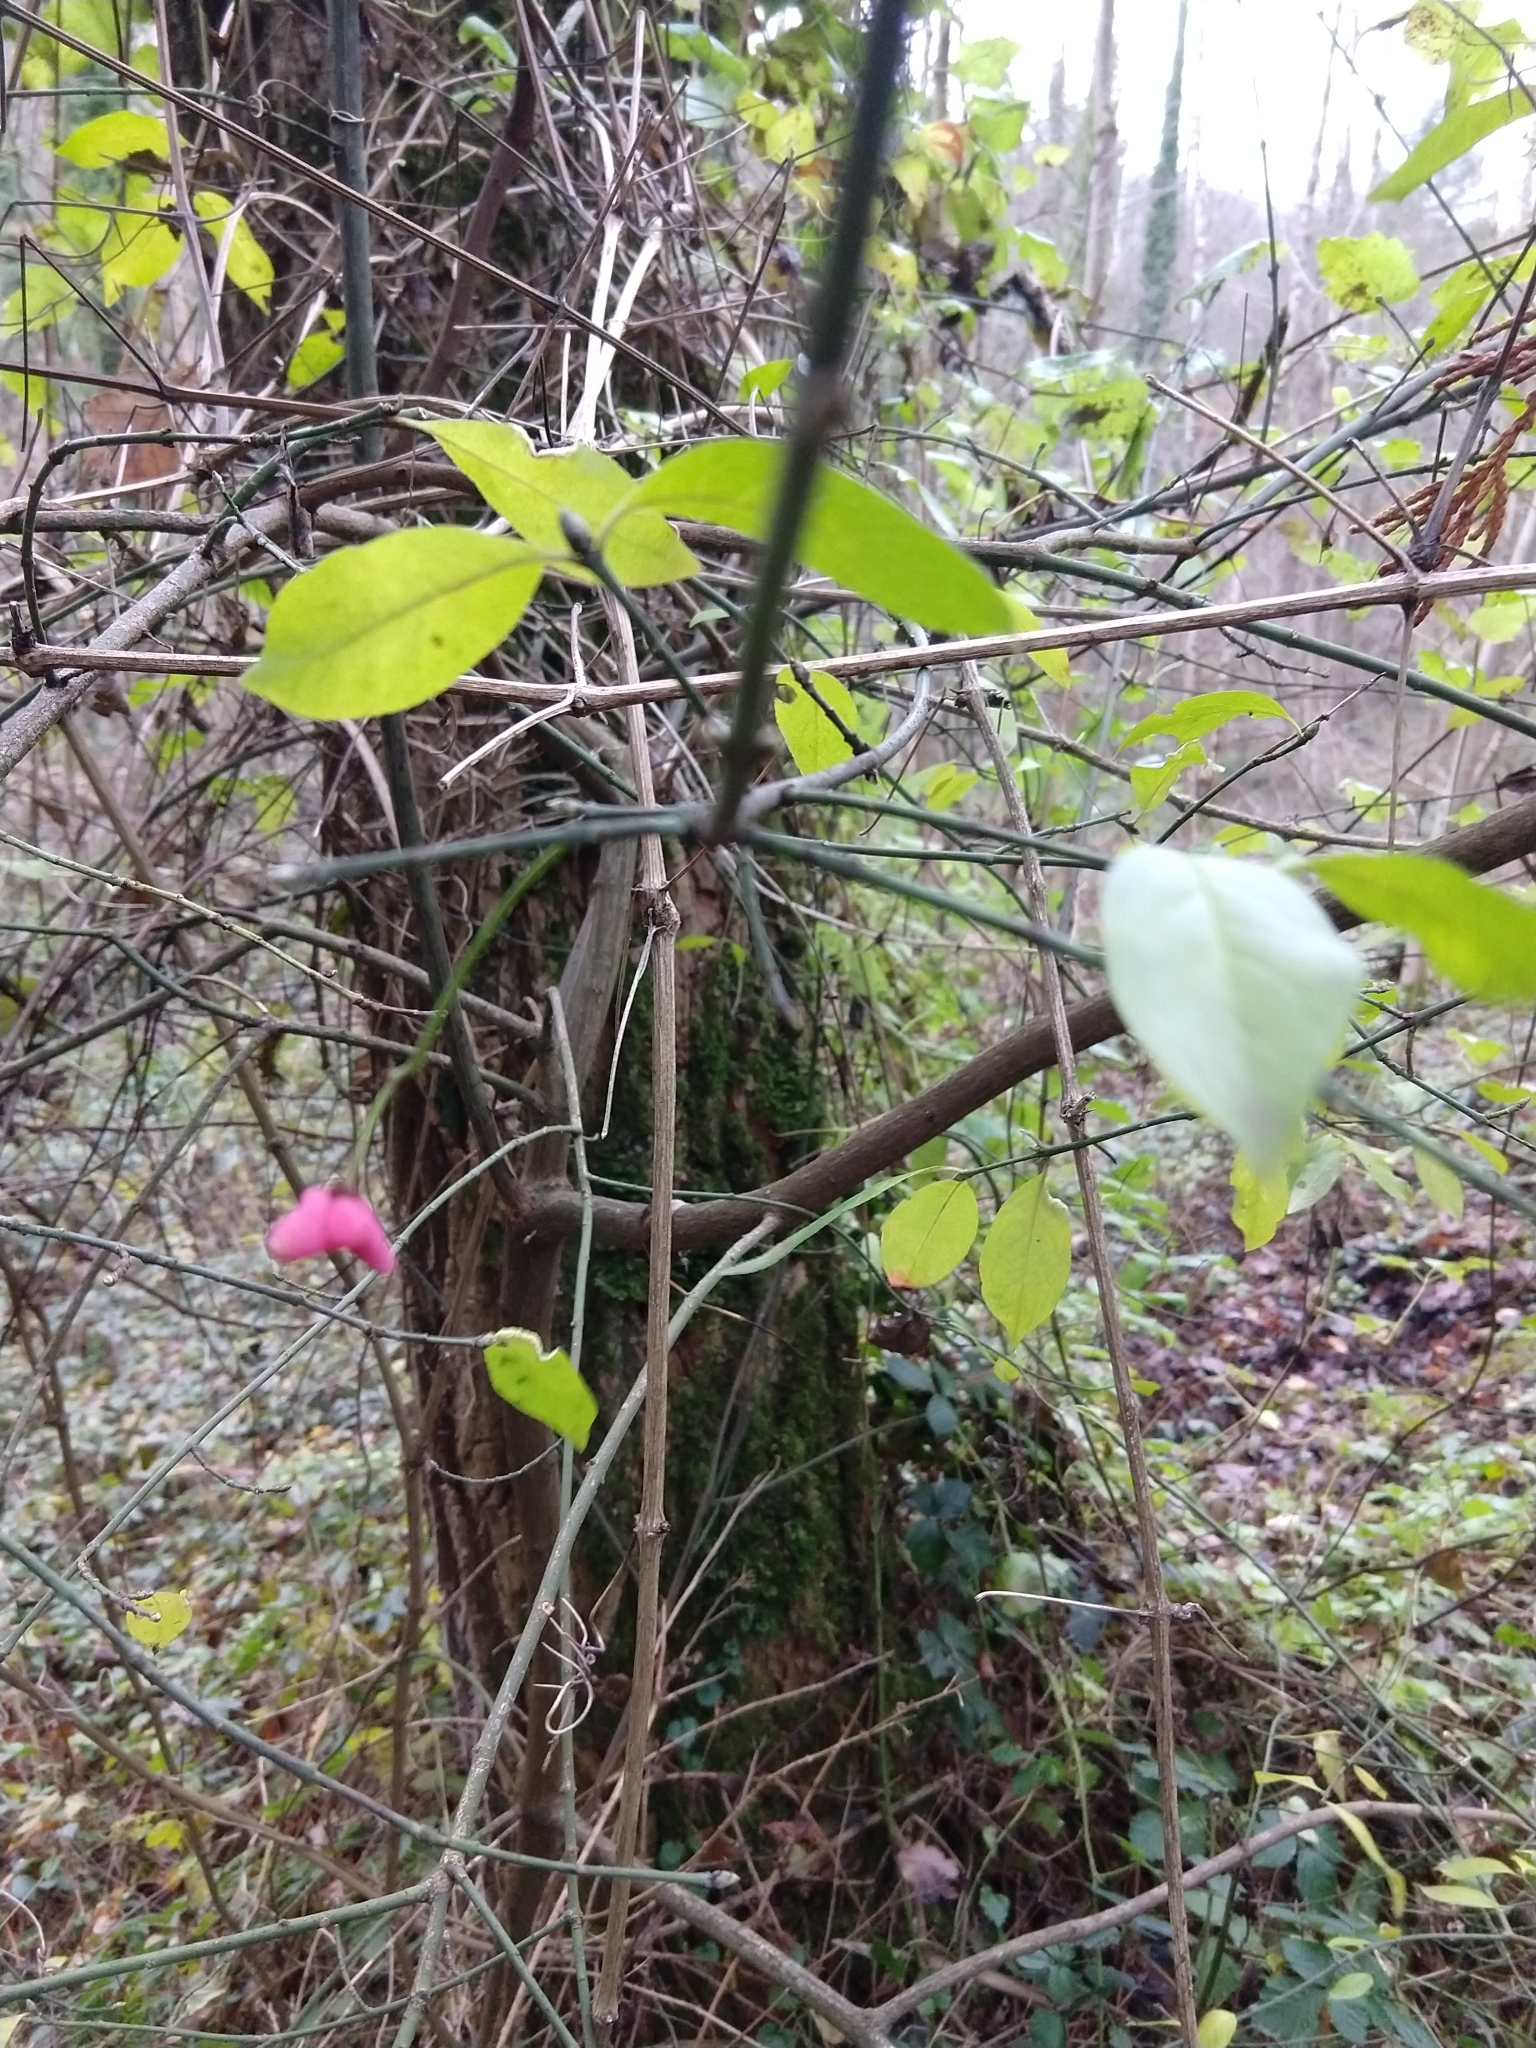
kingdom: Plantae
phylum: Tracheophyta
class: Magnoliopsida
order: Celastrales
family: Celastraceae
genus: Euonymus
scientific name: Euonymus europaeus
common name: Spindle
